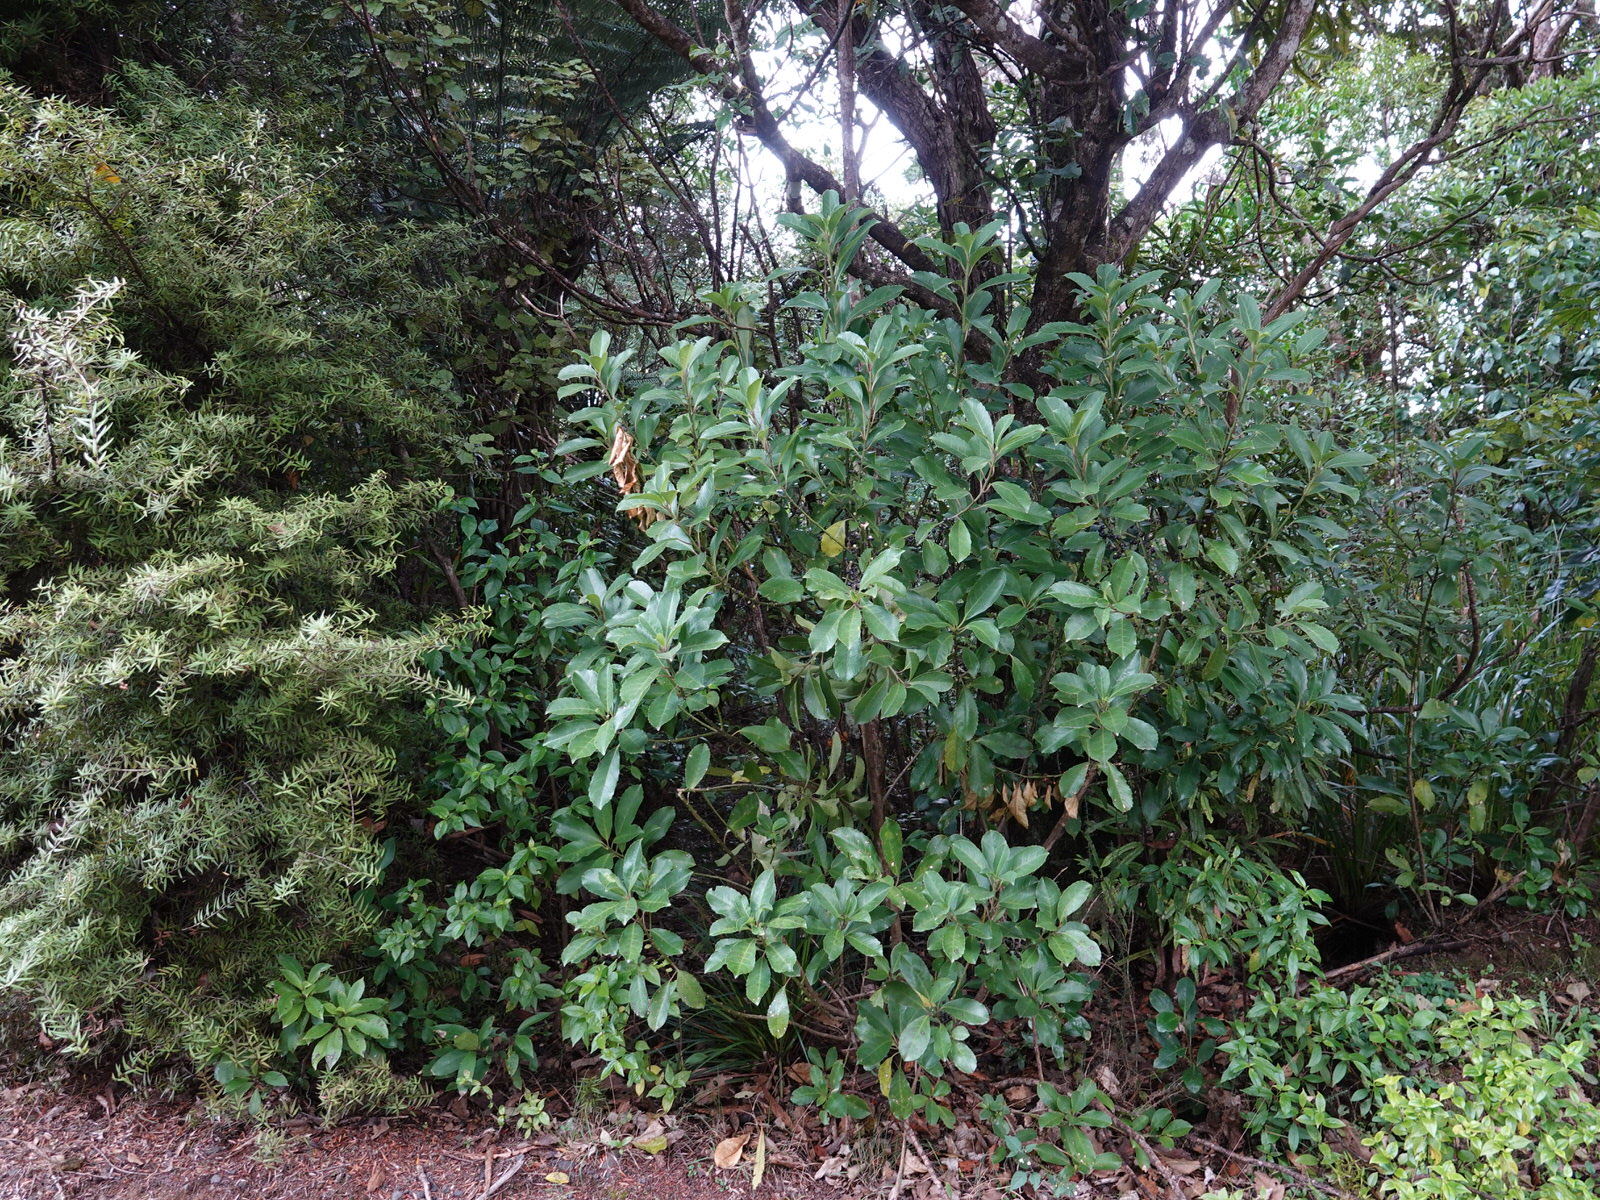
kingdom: Plantae
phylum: Tracheophyta
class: Magnoliopsida
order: Malpighiales
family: Violaceae
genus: Melicytus
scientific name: Melicytus macrophyllus
